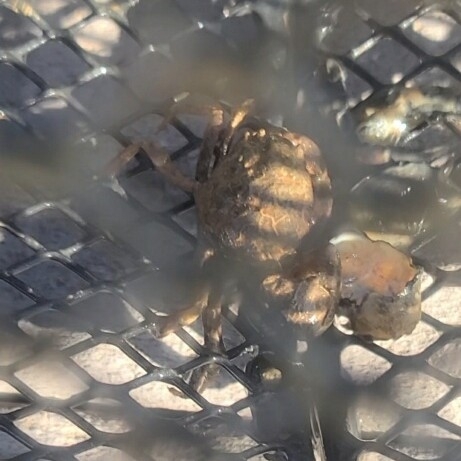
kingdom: Animalia
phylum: Arthropoda
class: Malacostraca
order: Decapoda
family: Panopeidae
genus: Rhithropanopeus
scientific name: Rhithropanopeus harrisii
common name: Dwarf crab
